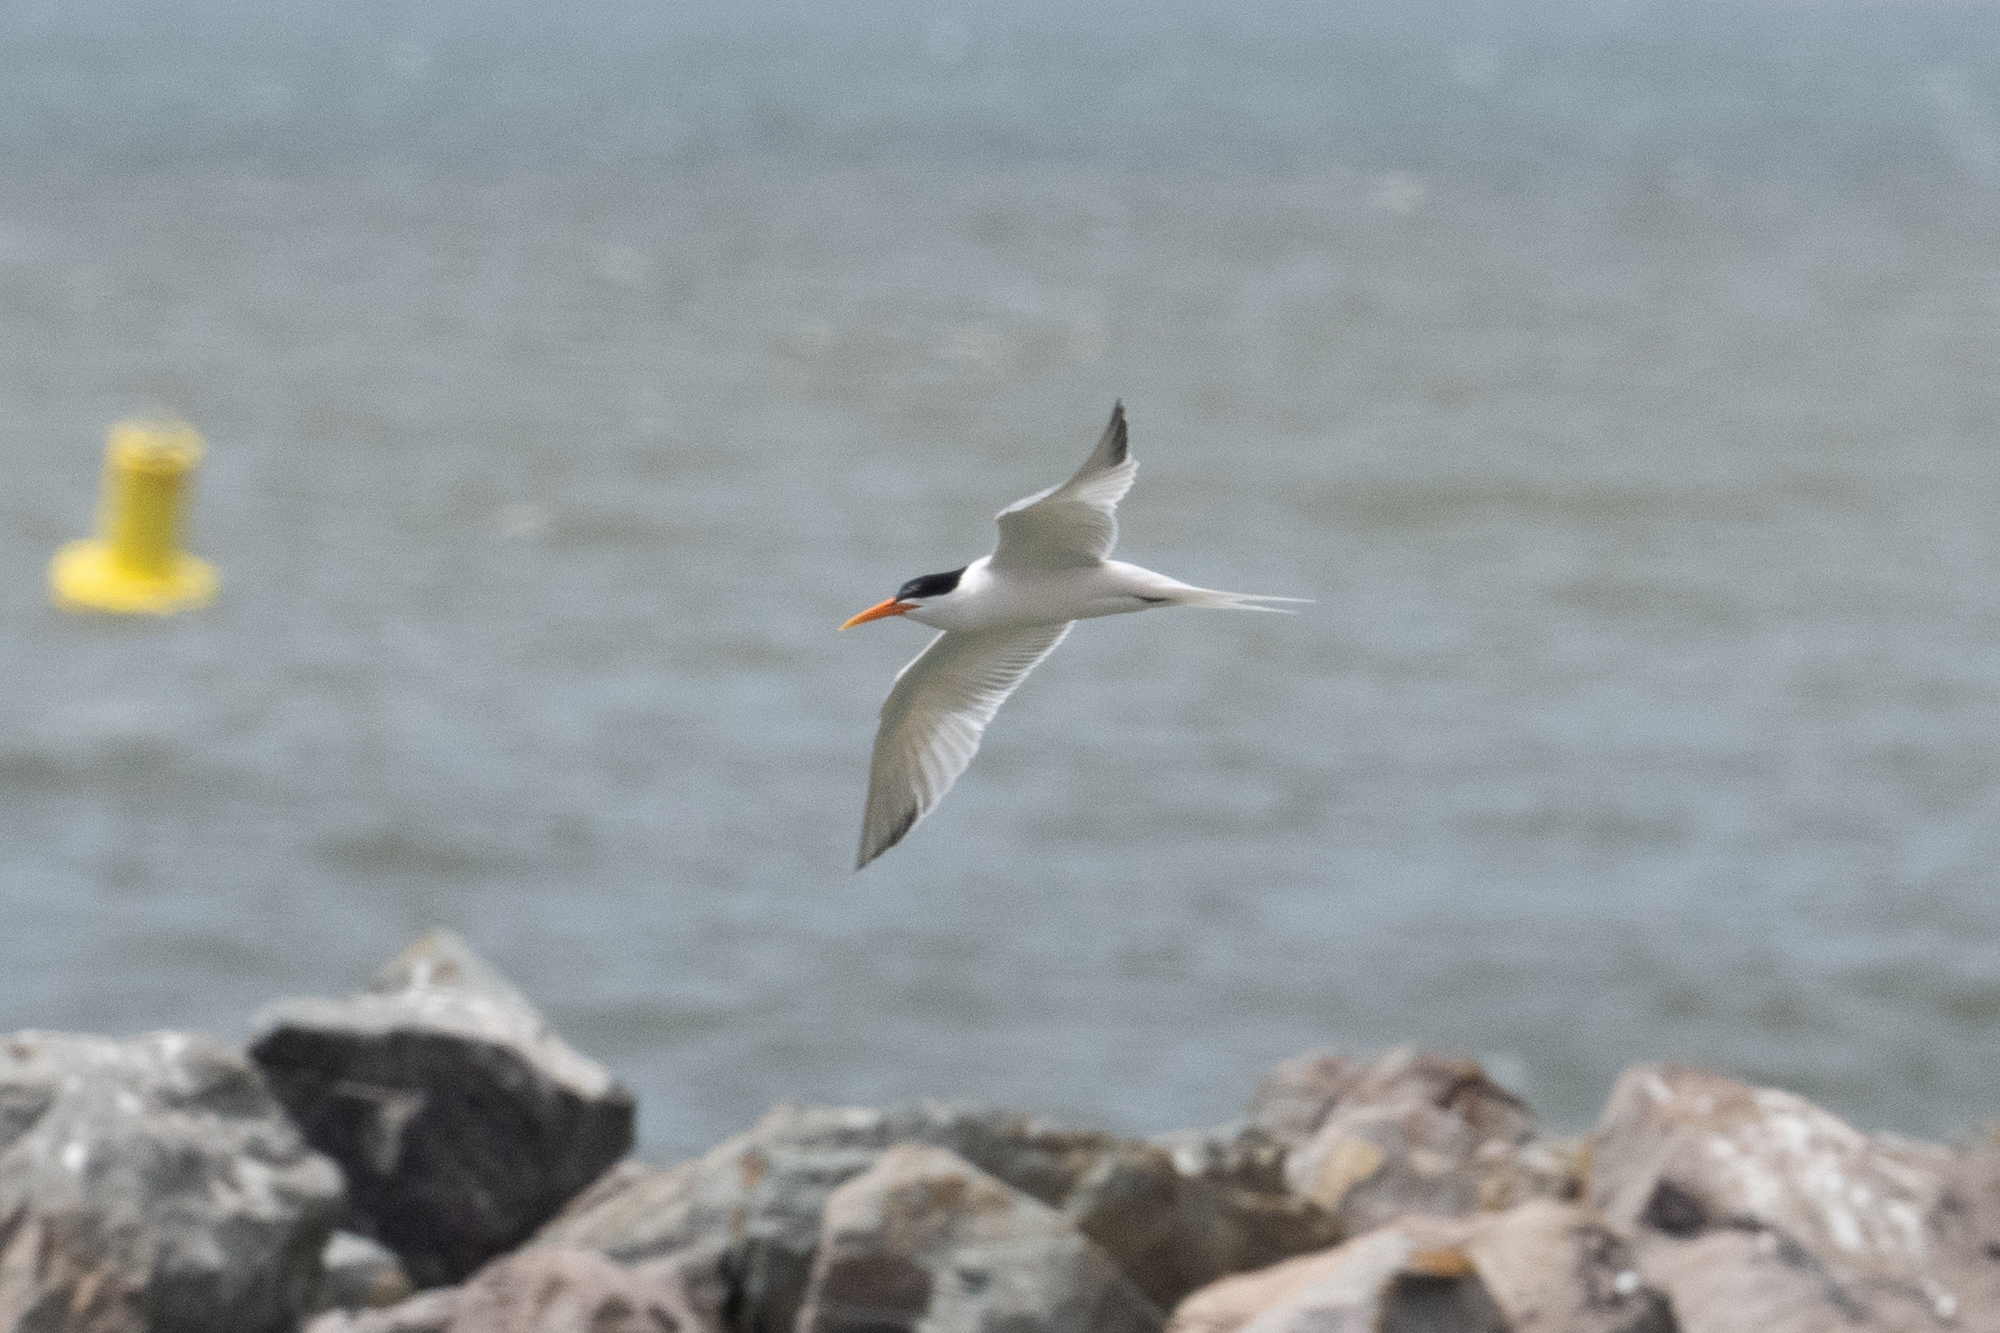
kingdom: Animalia
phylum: Chordata
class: Aves
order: Charadriiformes
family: Laridae
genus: Thalasseus
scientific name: Thalasseus elegans
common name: Elegant tern
